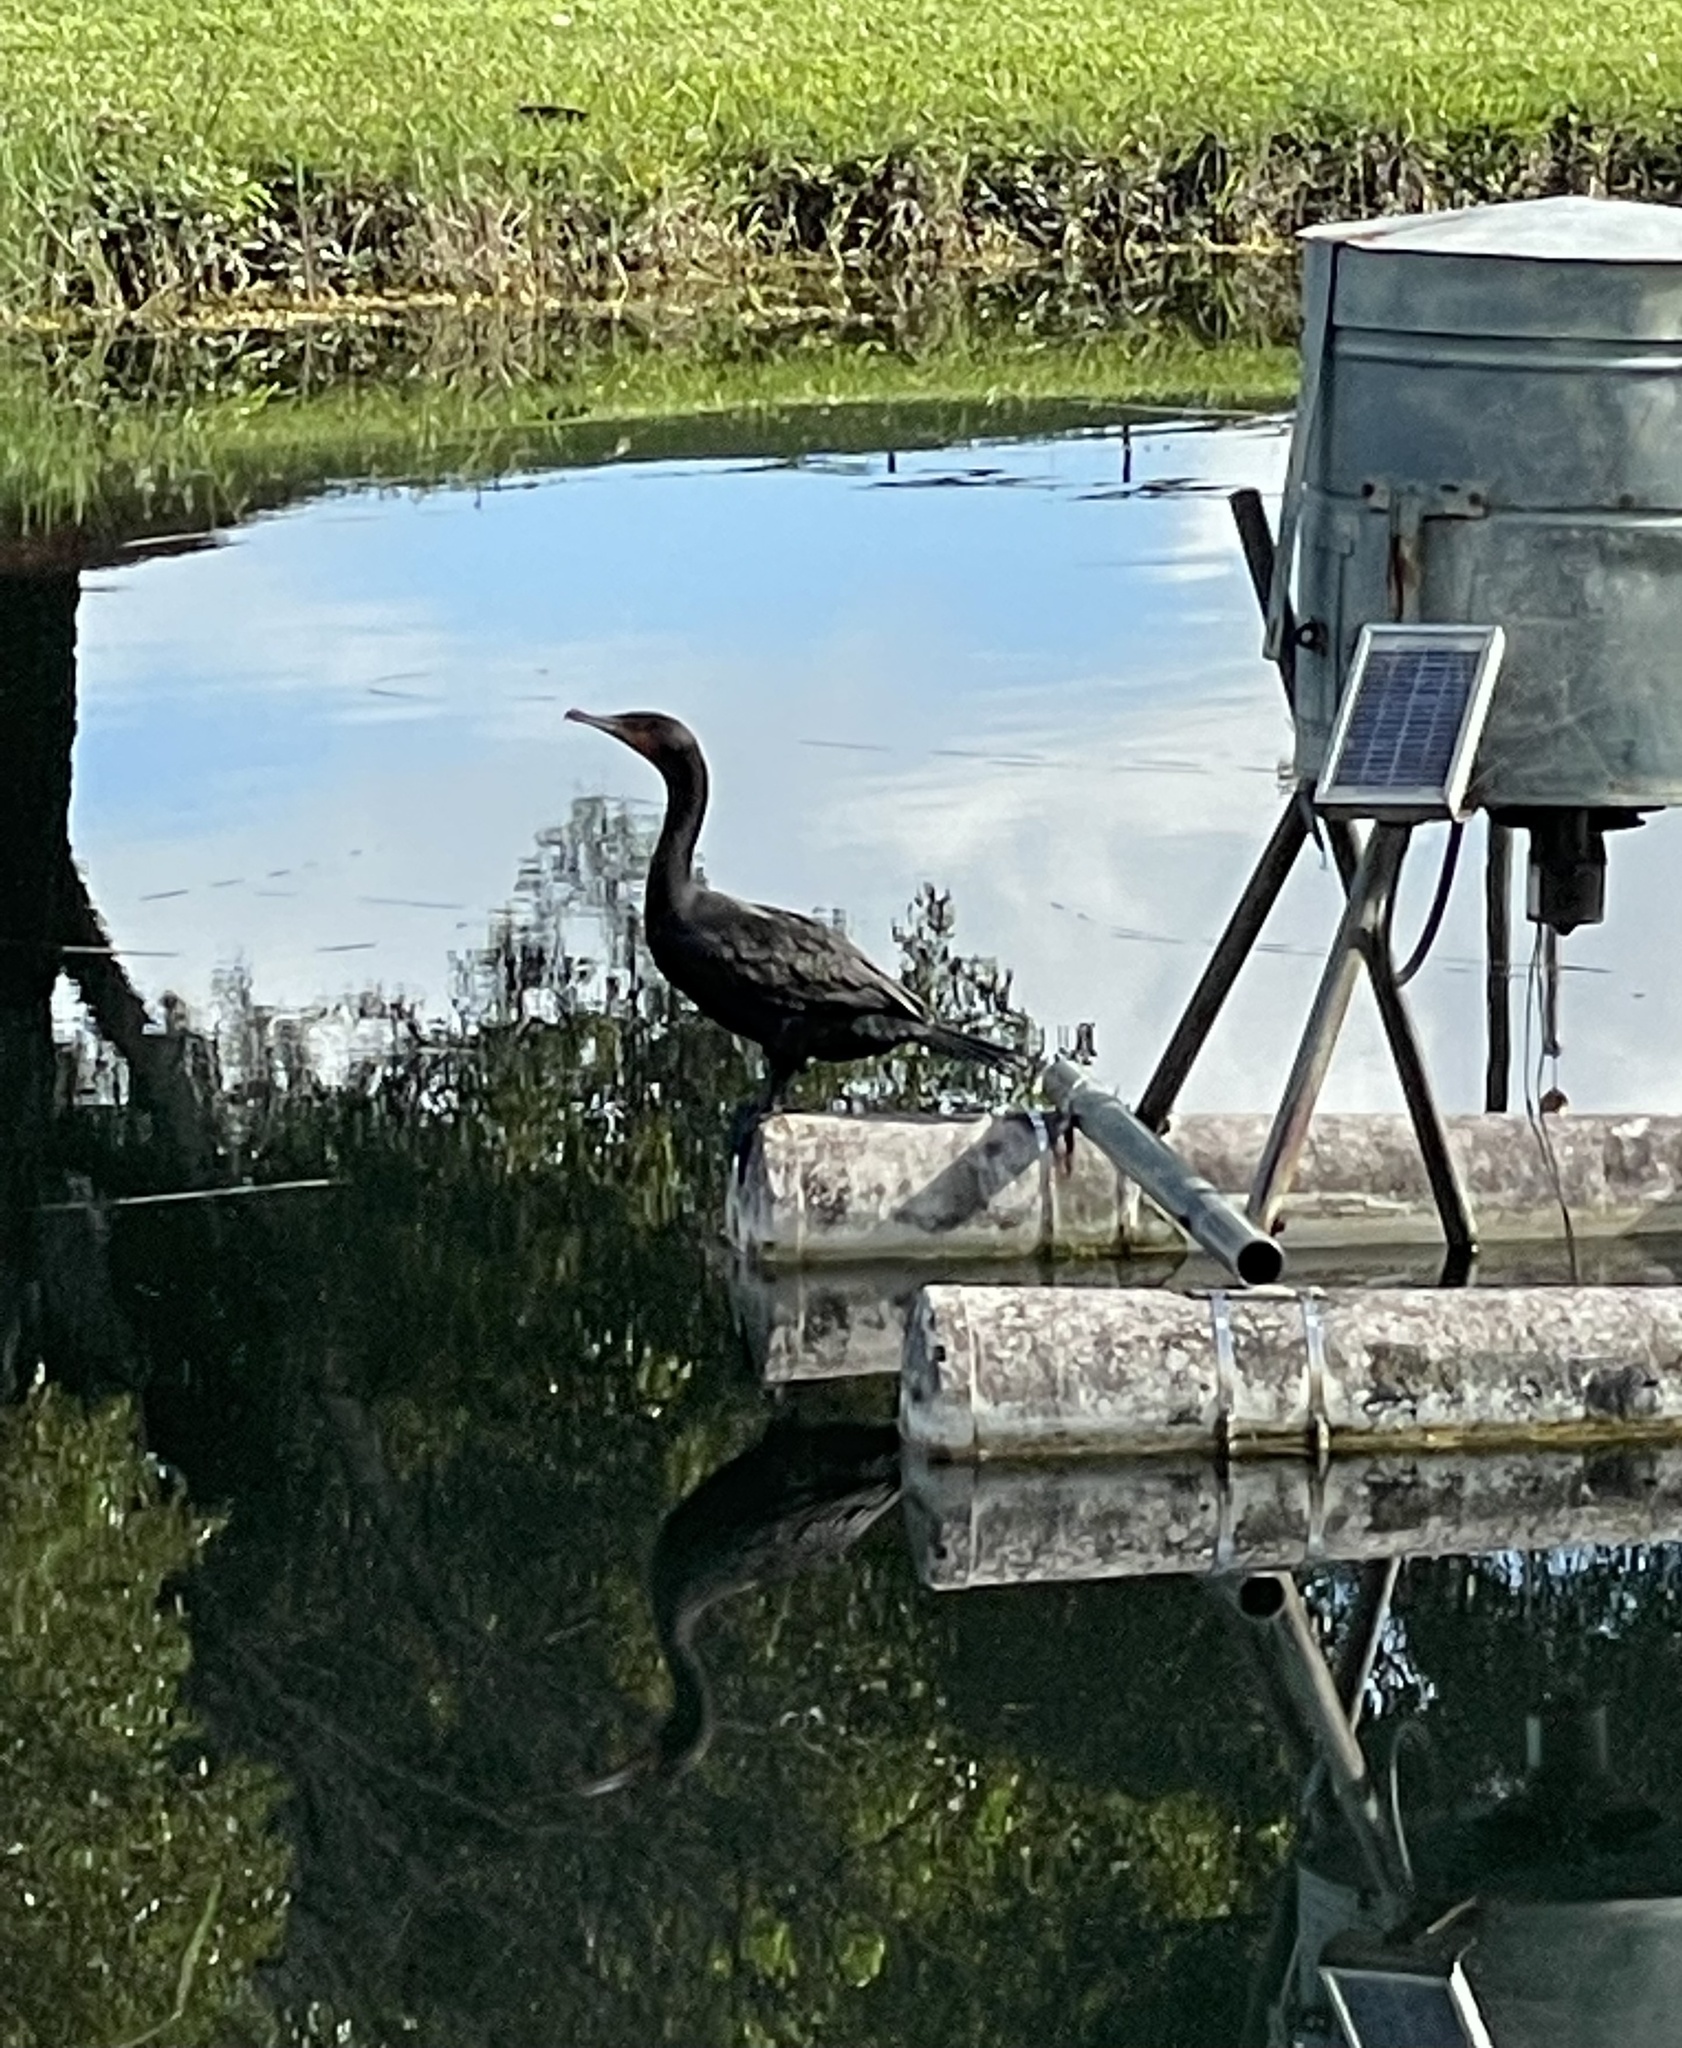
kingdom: Animalia
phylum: Chordata
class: Aves
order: Suliformes
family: Phalacrocoracidae
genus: Phalacrocorax
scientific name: Phalacrocorax auritus
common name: Double-crested cormorant
